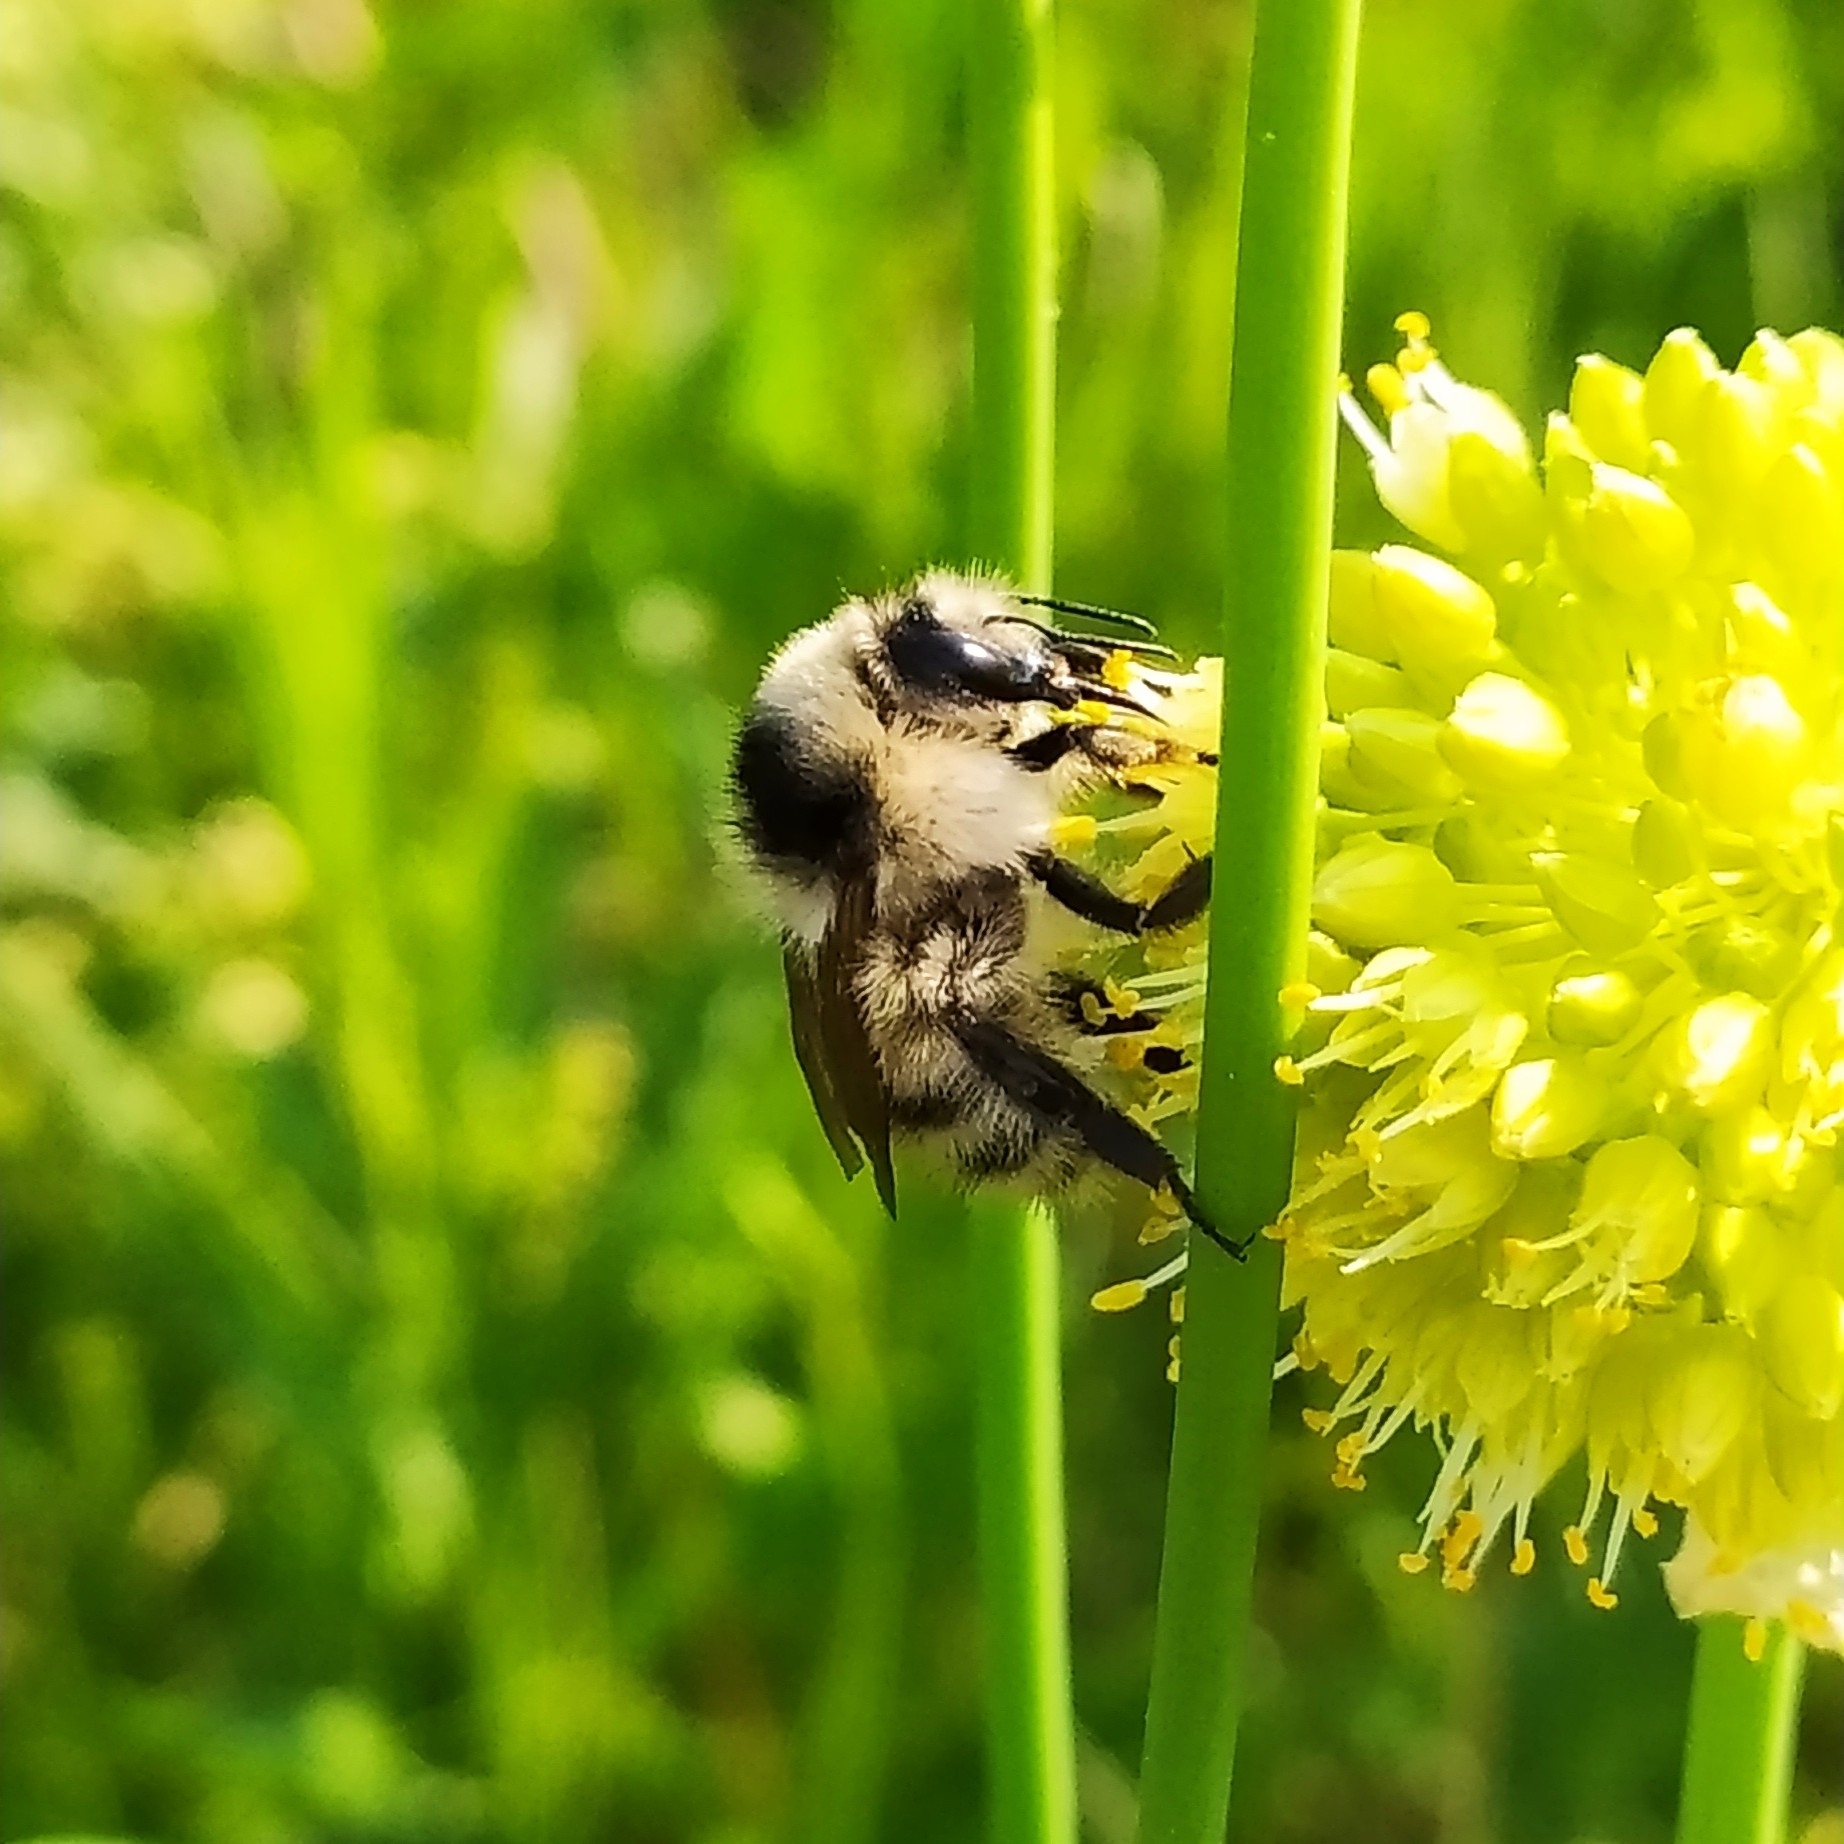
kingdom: Animalia
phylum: Arthropoda
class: Insecta
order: Hymenoptera
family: Apidae
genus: Bombus
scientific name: Bombus veteranus
